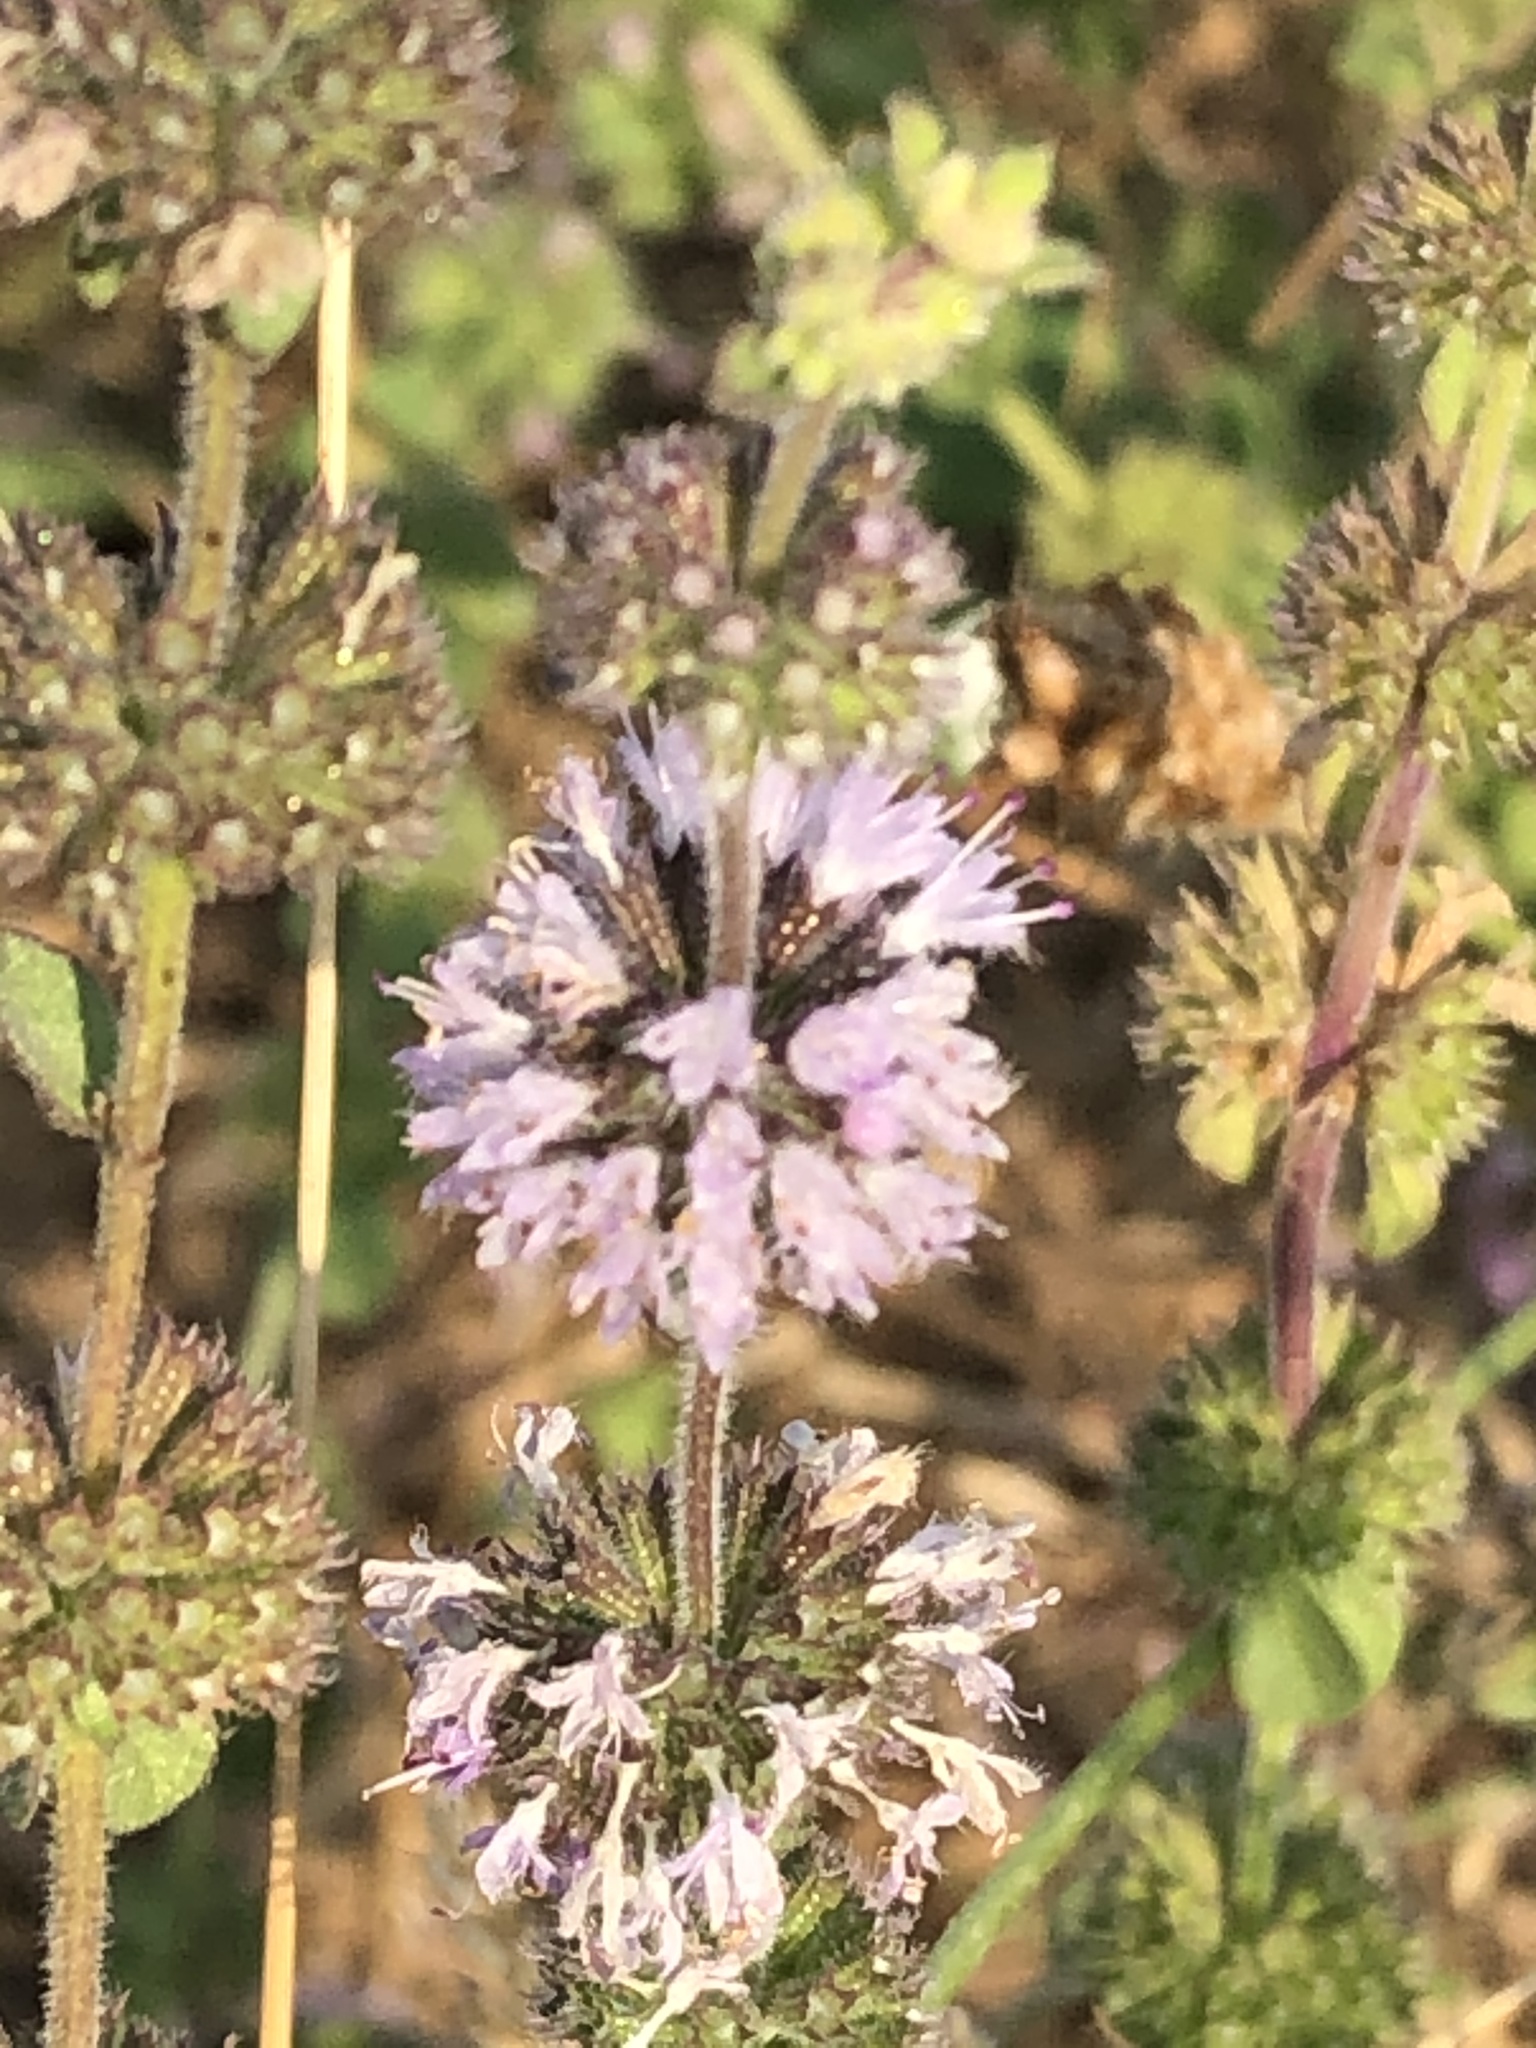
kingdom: Plantae
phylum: Tracheophyta
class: Magnoliopsida
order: Lamiales
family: Lamiaceae
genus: Mentha
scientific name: Mentha pulegium
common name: Pennyroyal
